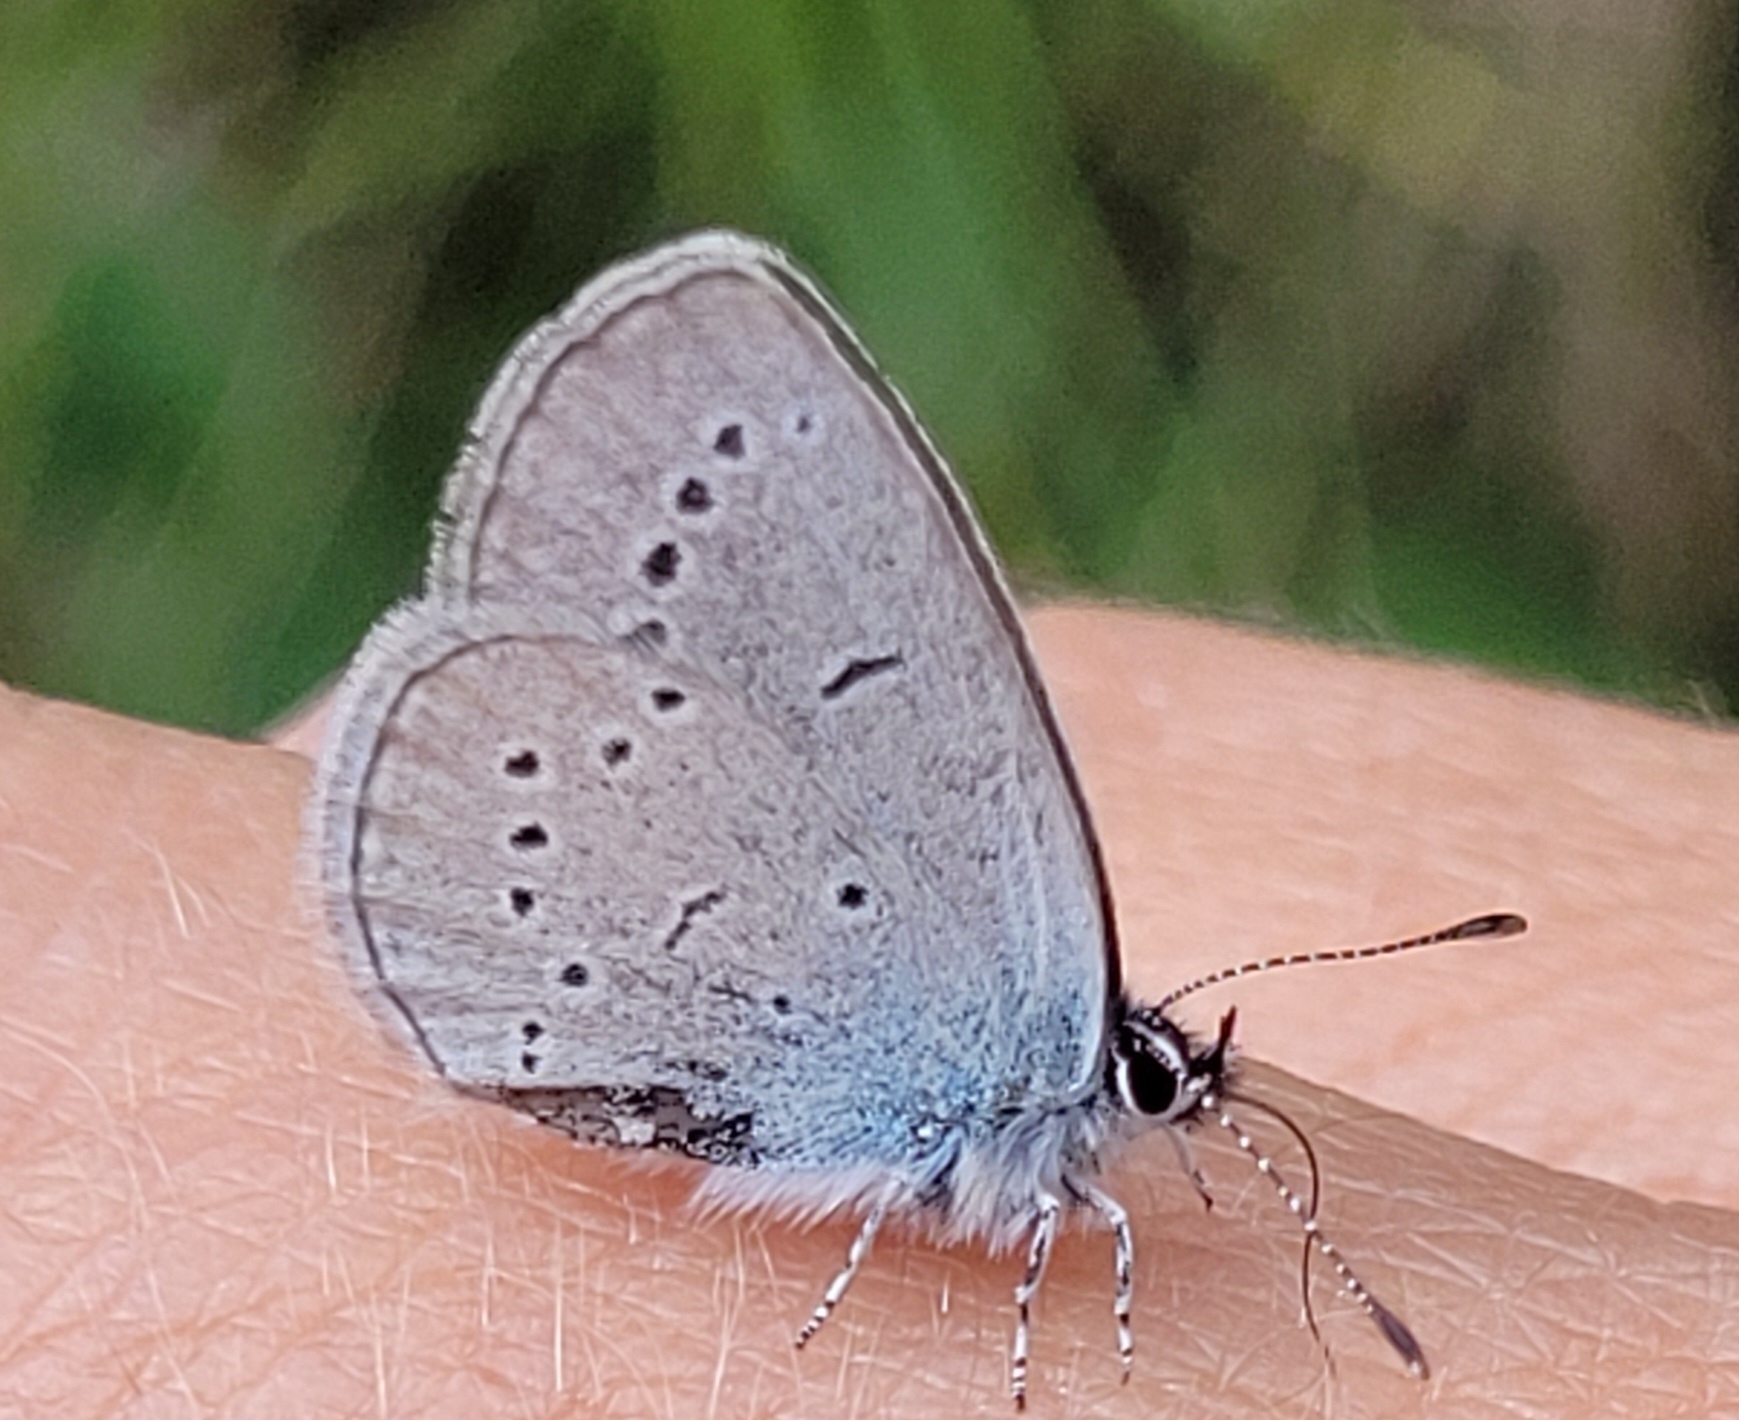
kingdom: Animalia
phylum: Arthropoda
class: Insecta
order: Lepidoptera
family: Lycaenidae
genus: Cupido
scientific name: Cupido minimus
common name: Small blue
